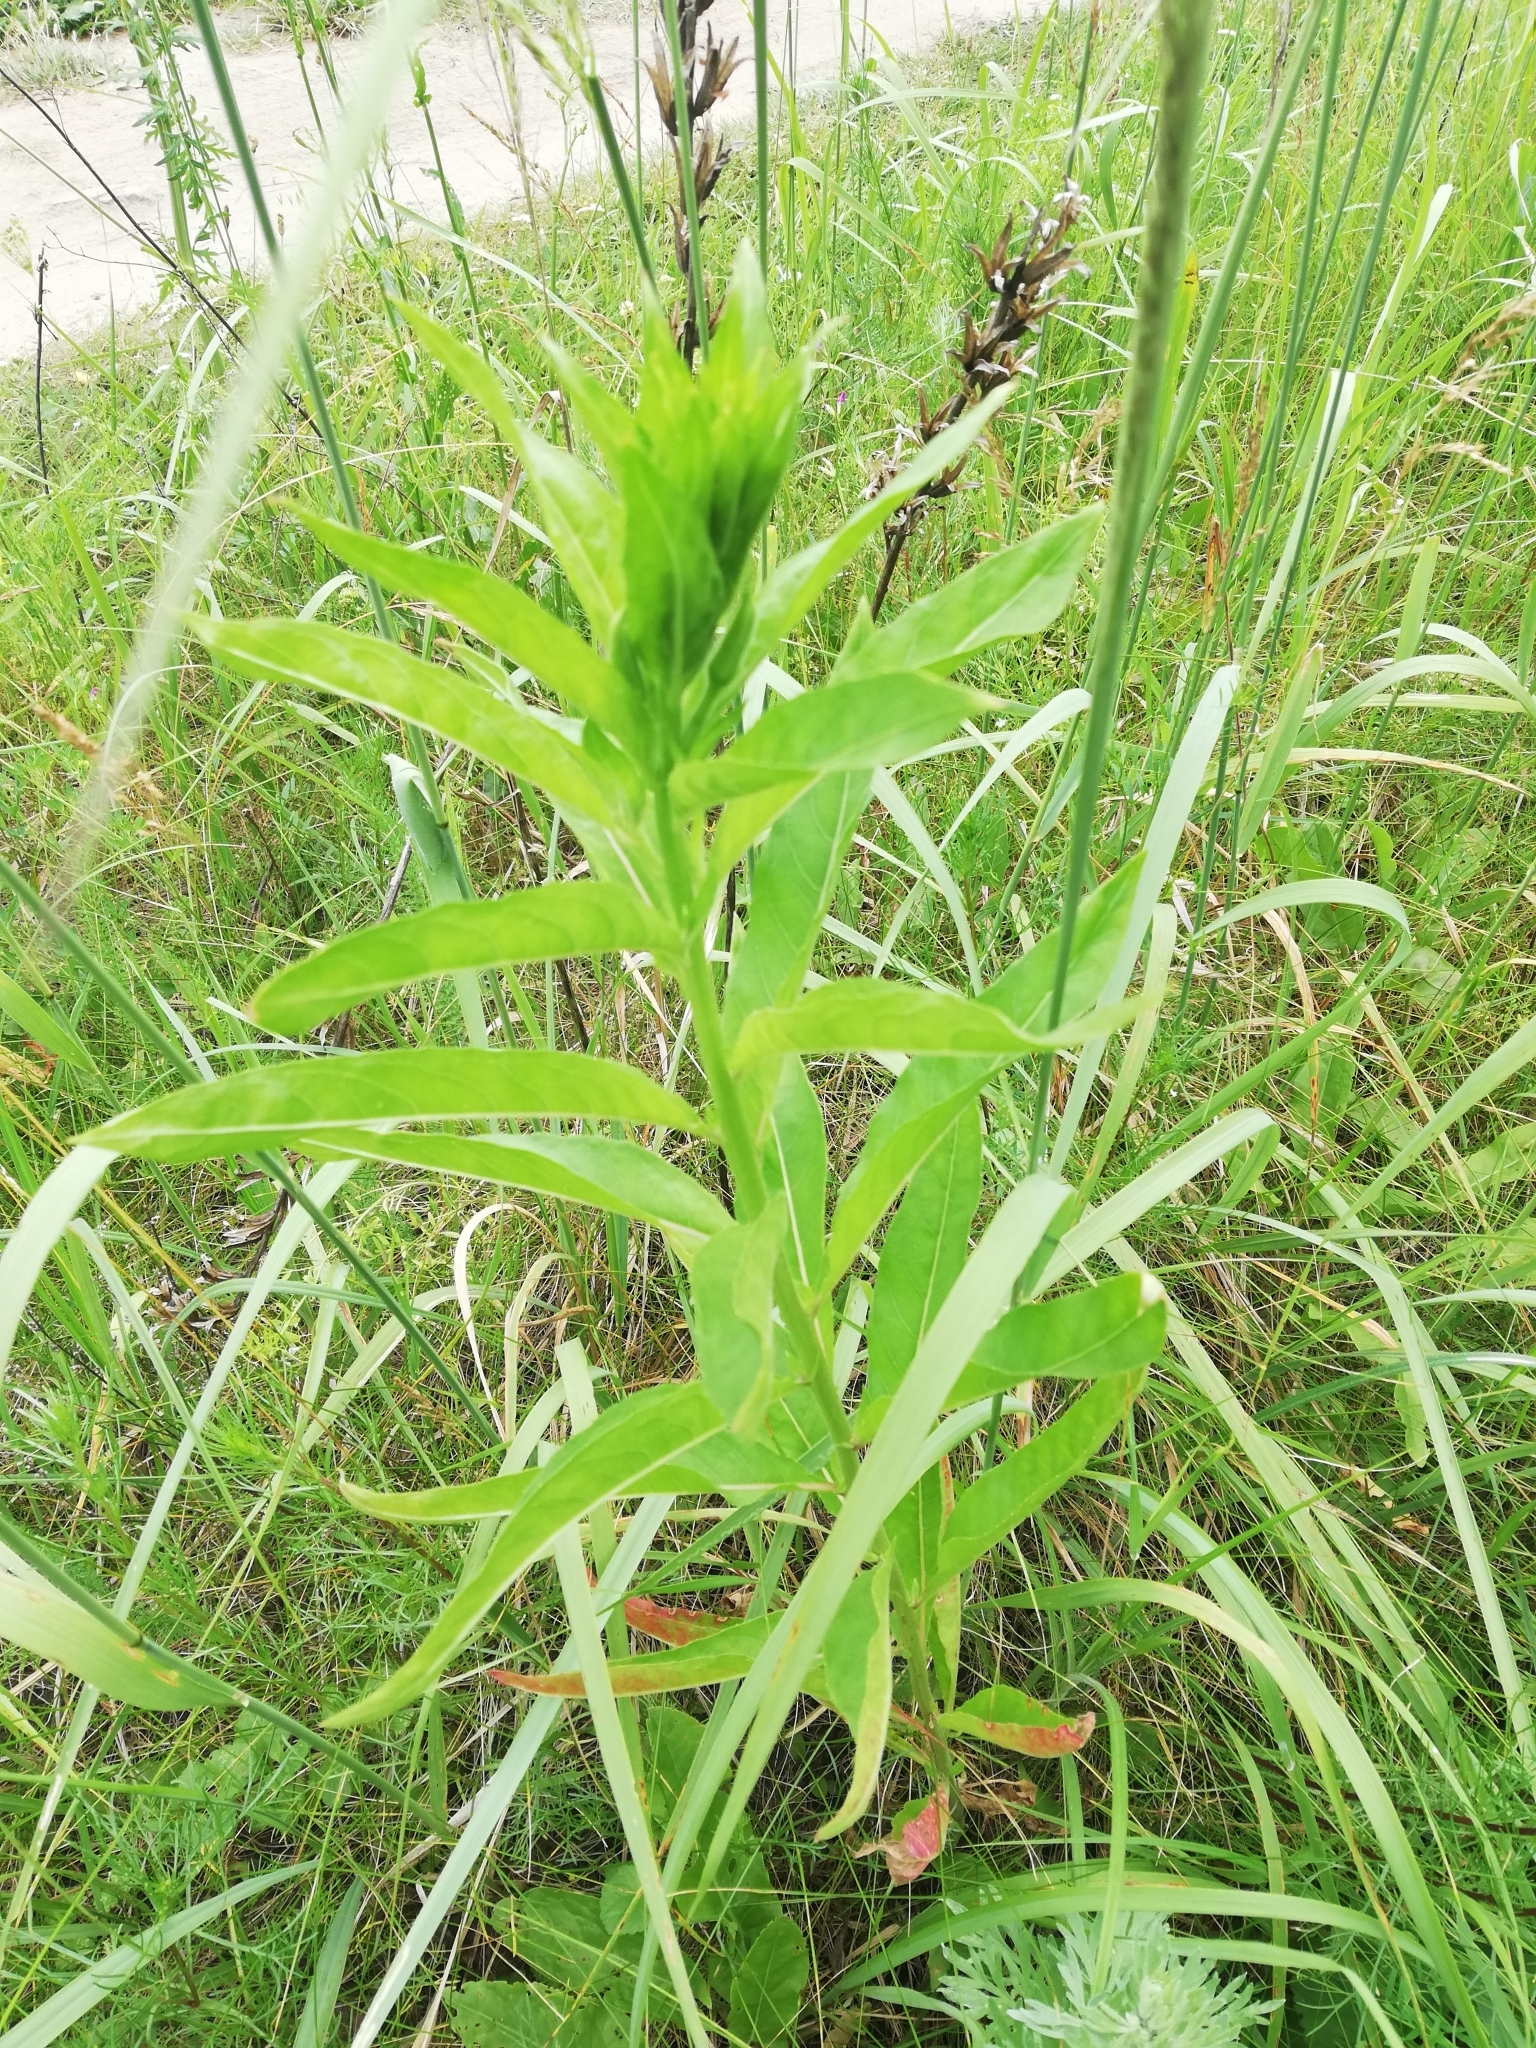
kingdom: Plantae
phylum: Tracheophyta
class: Magnoliopsida
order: Myrtales
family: Onagraceae
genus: Oenothera
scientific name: Oenothera biennis
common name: Common evening-primrose
